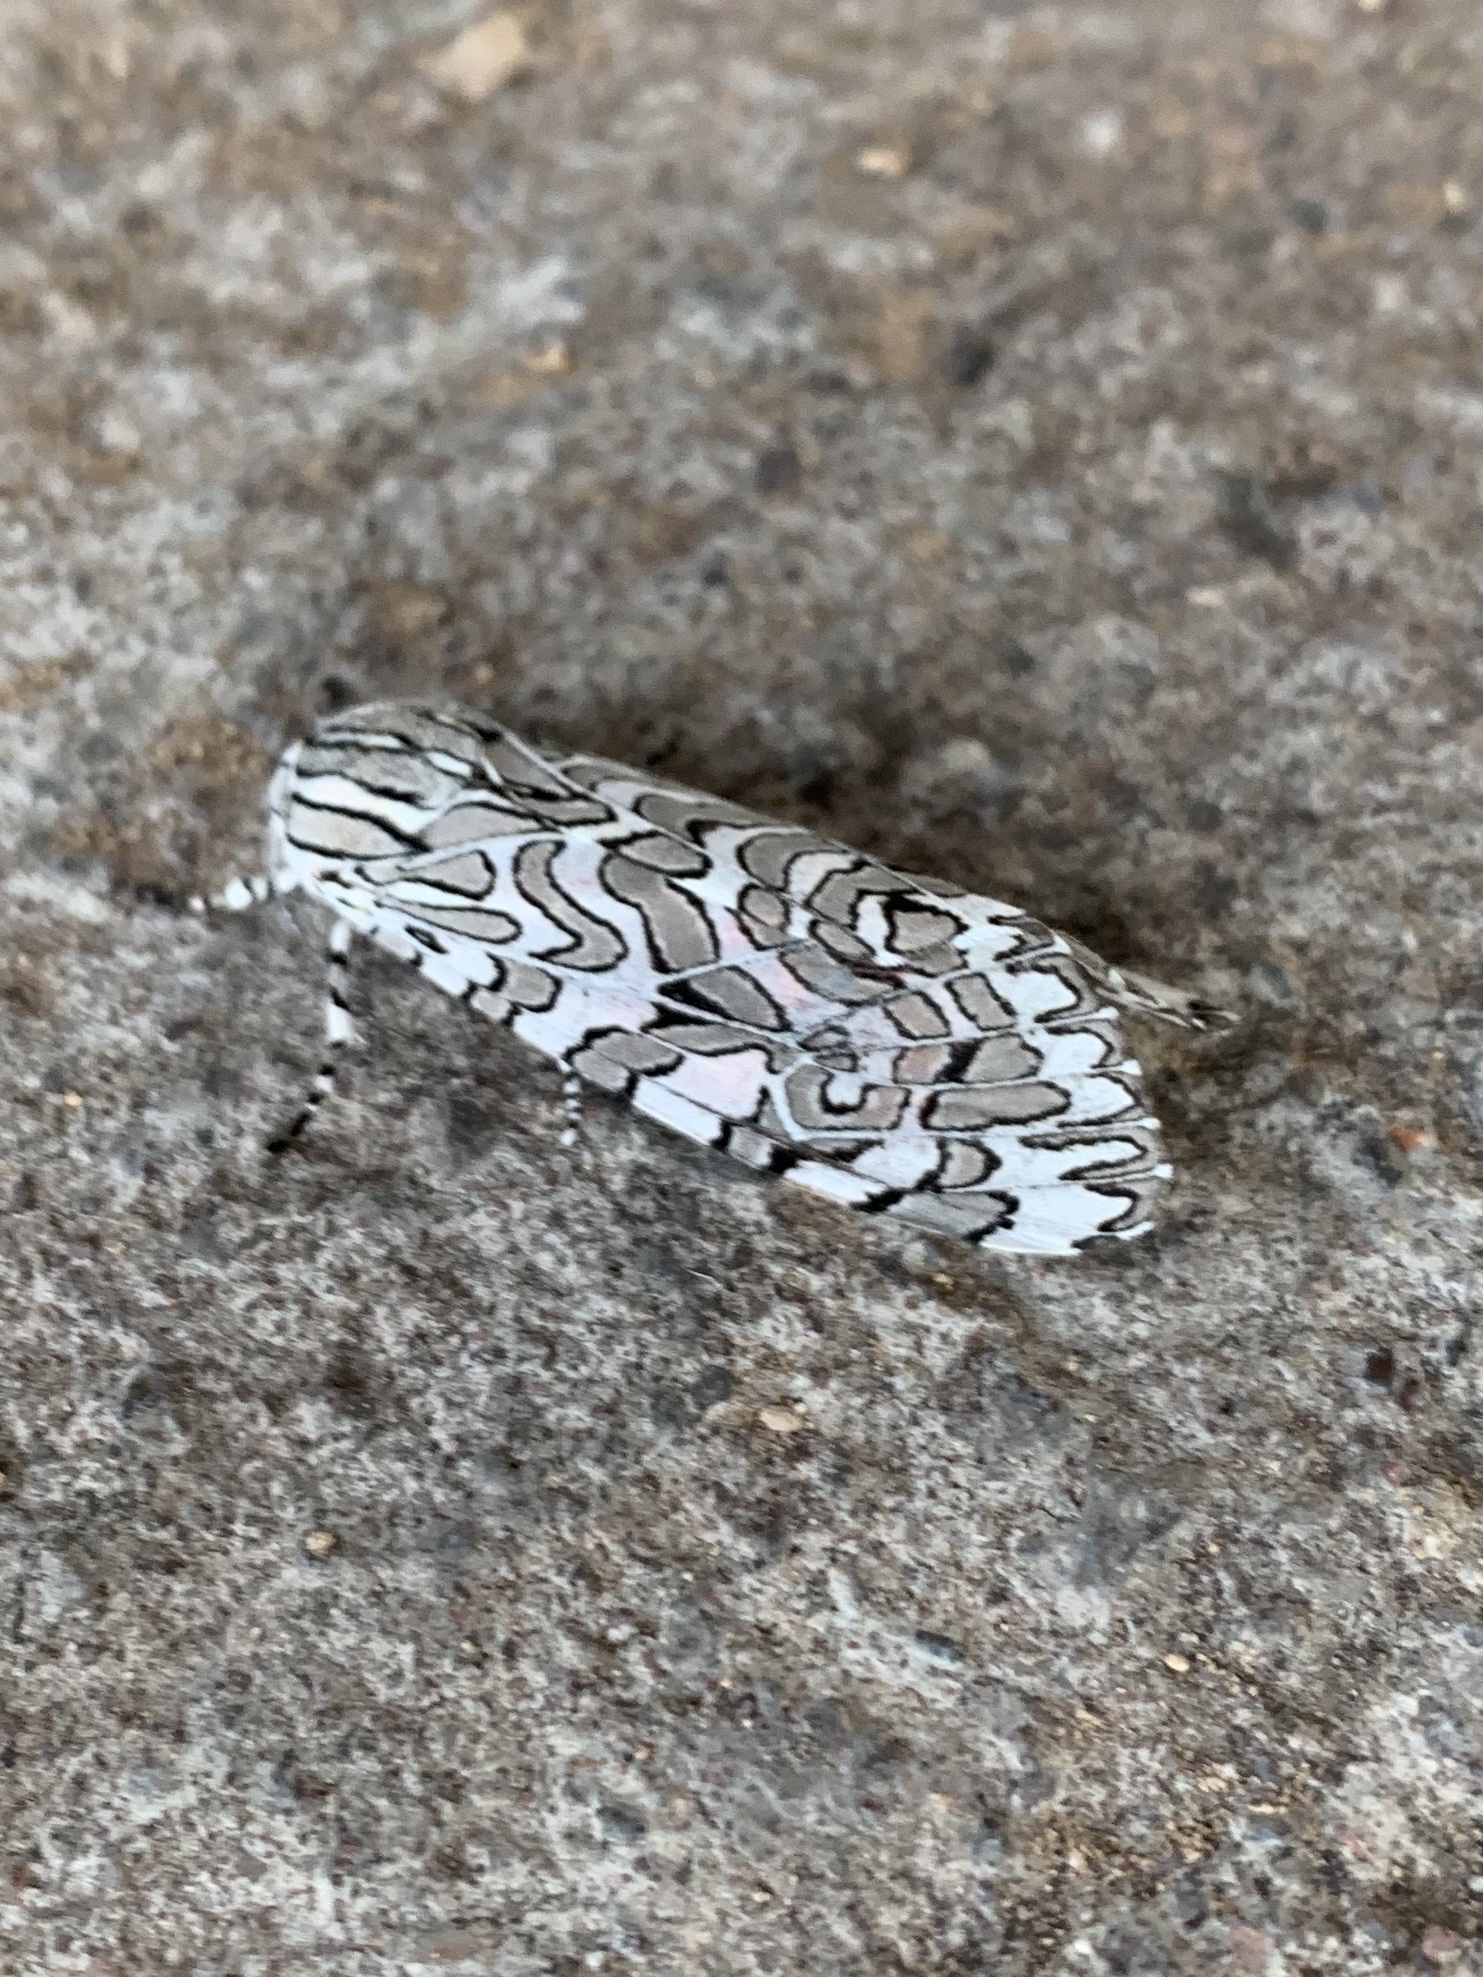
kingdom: Animalia
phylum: Arthropoda
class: Insecta
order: Lepidoptera
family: Erebidae
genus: Arachnis
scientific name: Arachnis picta
